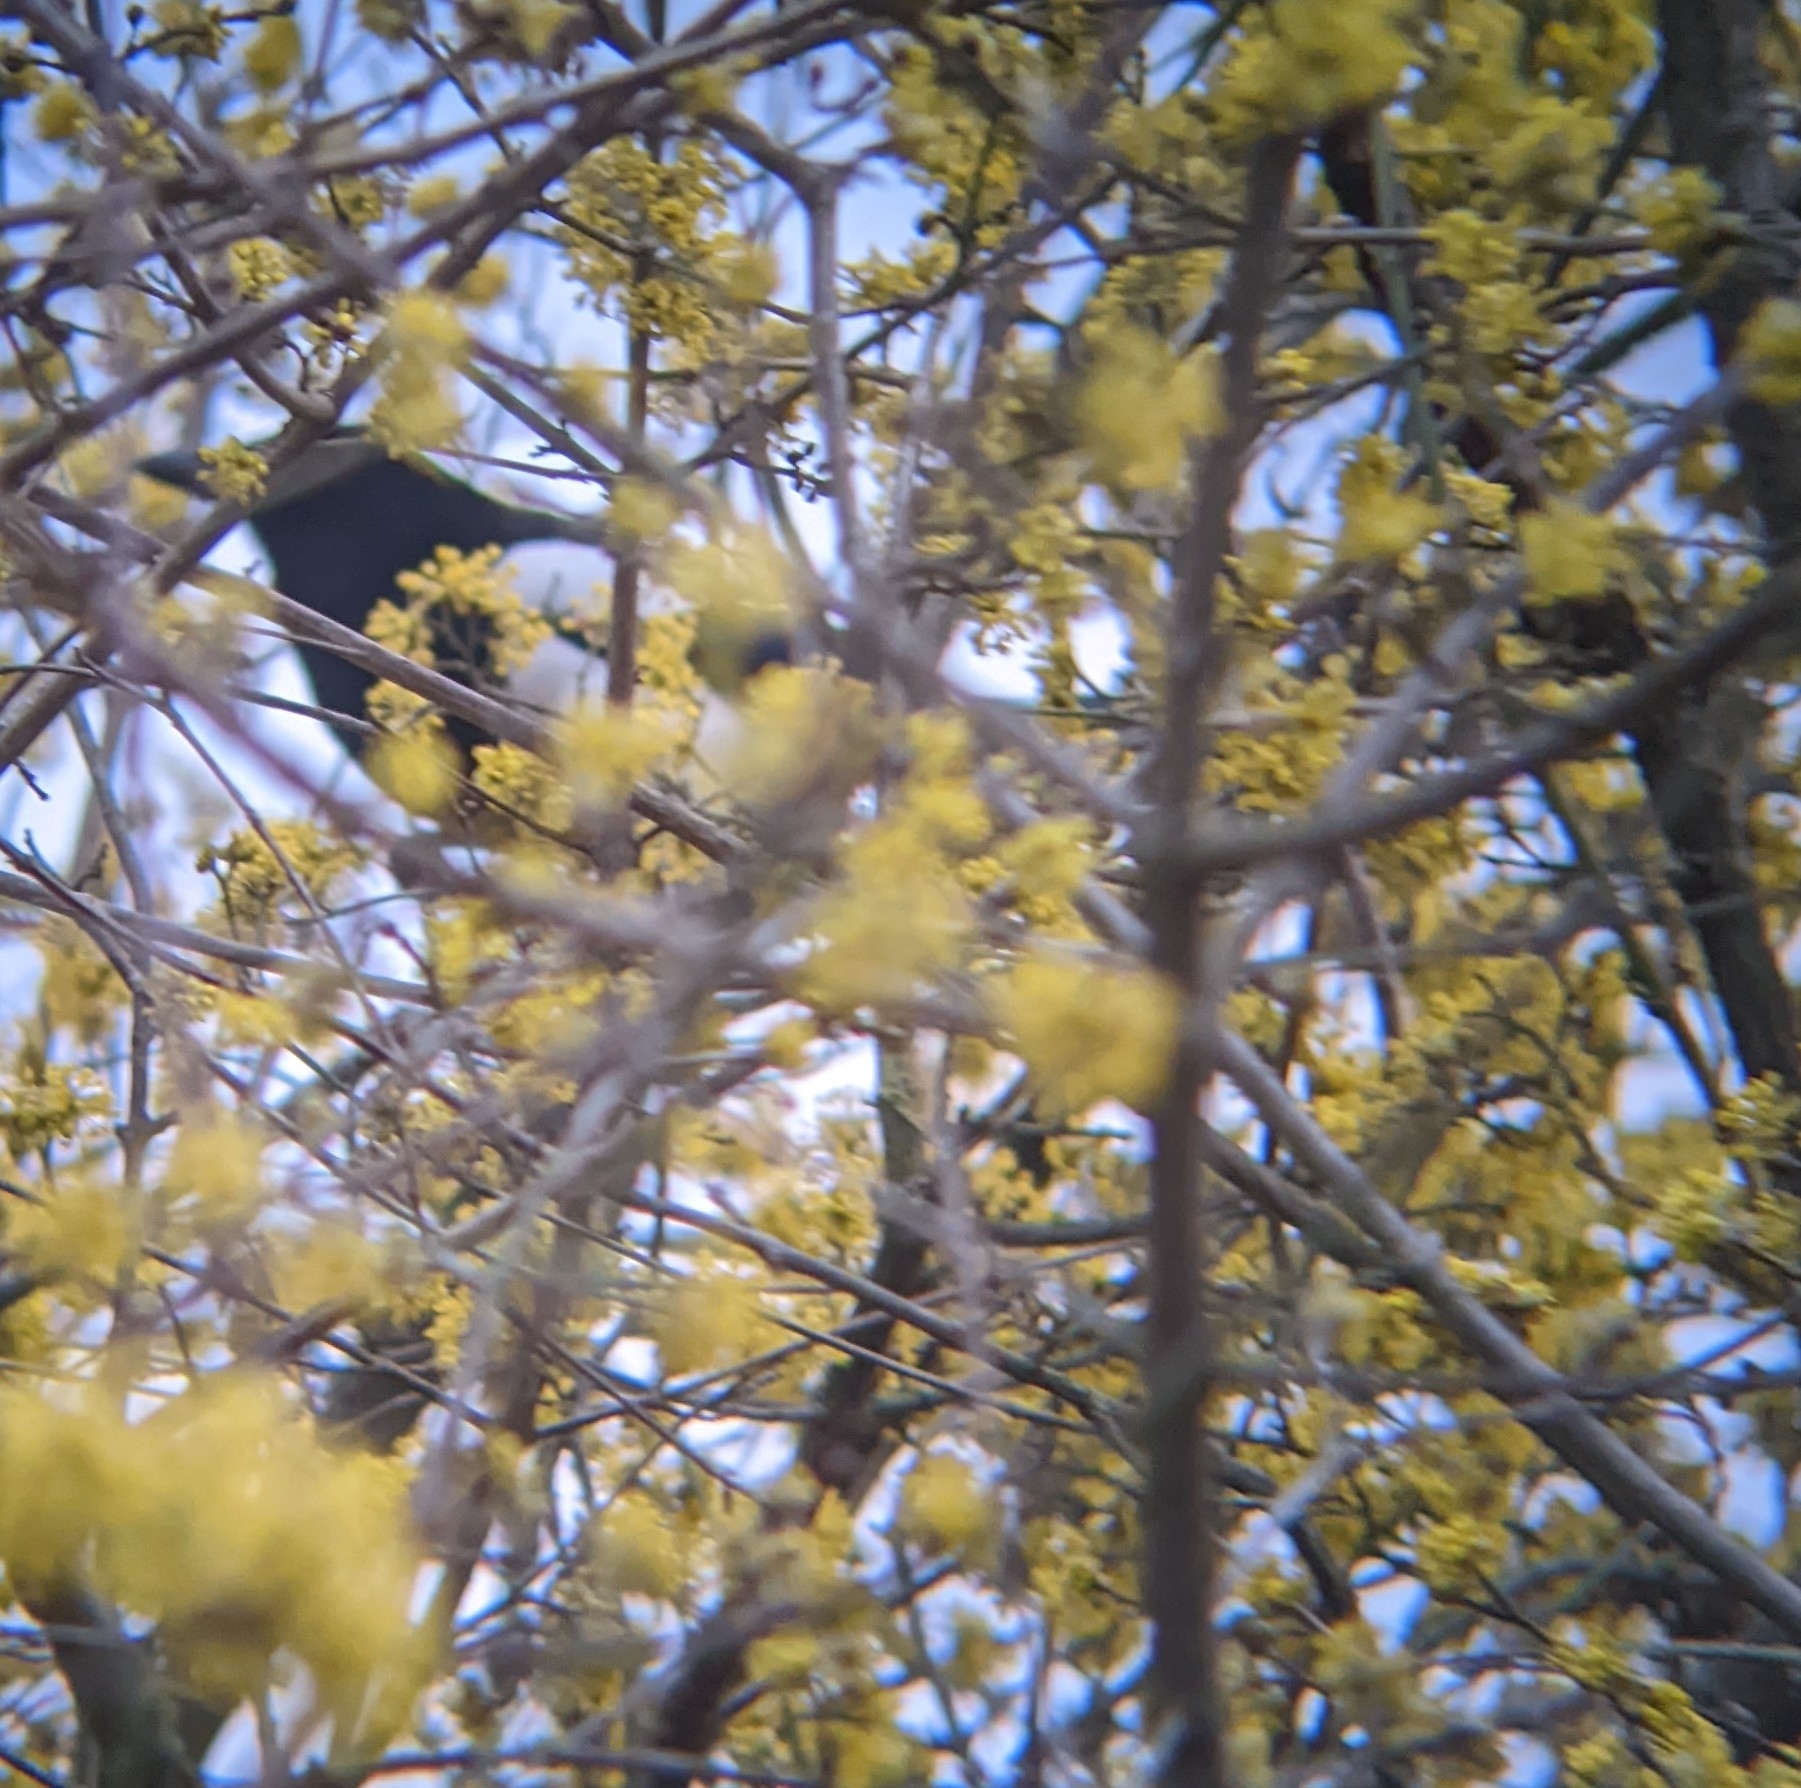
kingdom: Animalia
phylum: Chordata
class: Aves
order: Passeriformes
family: Corvidae
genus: Pica
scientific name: Pica pica
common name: Eurasian magpie
